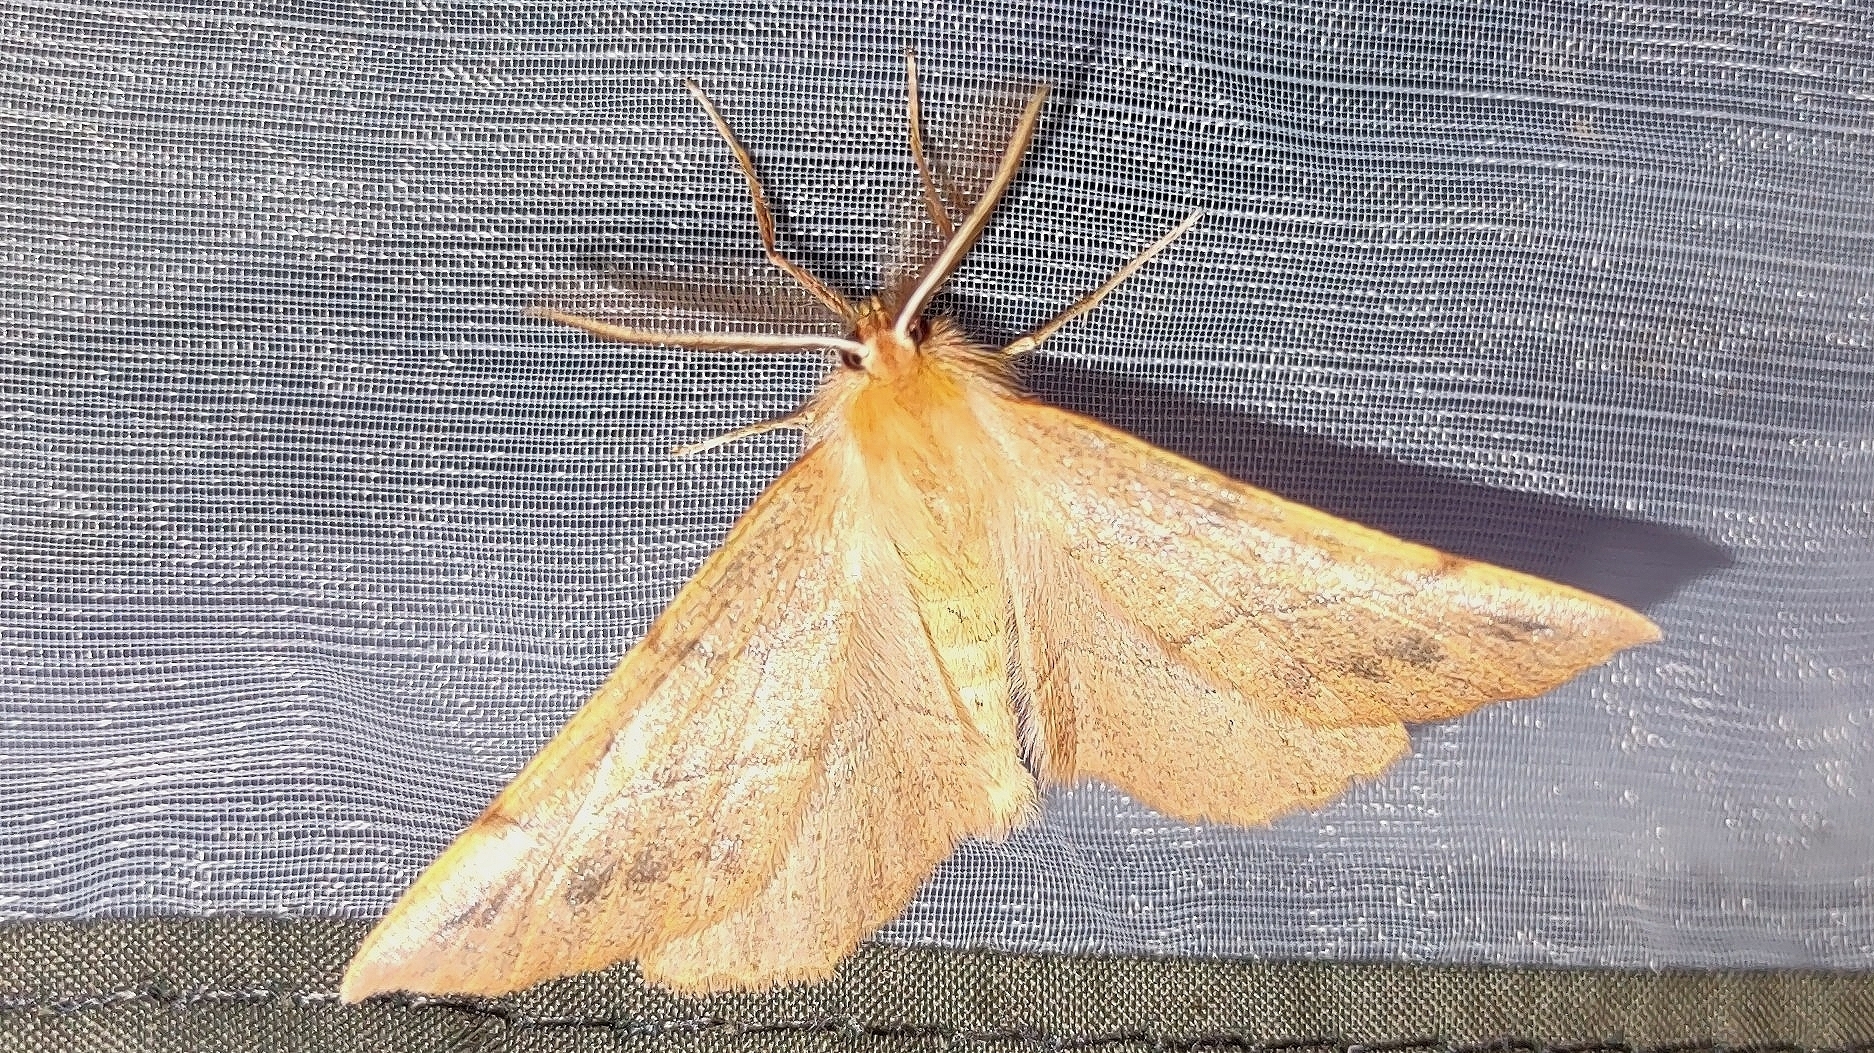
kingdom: Animalia
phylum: Arthropoda
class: Insecta
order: Lepidoptera
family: Geometridae
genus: Colotois
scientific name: Colotois pennaria
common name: Feathered thorn
